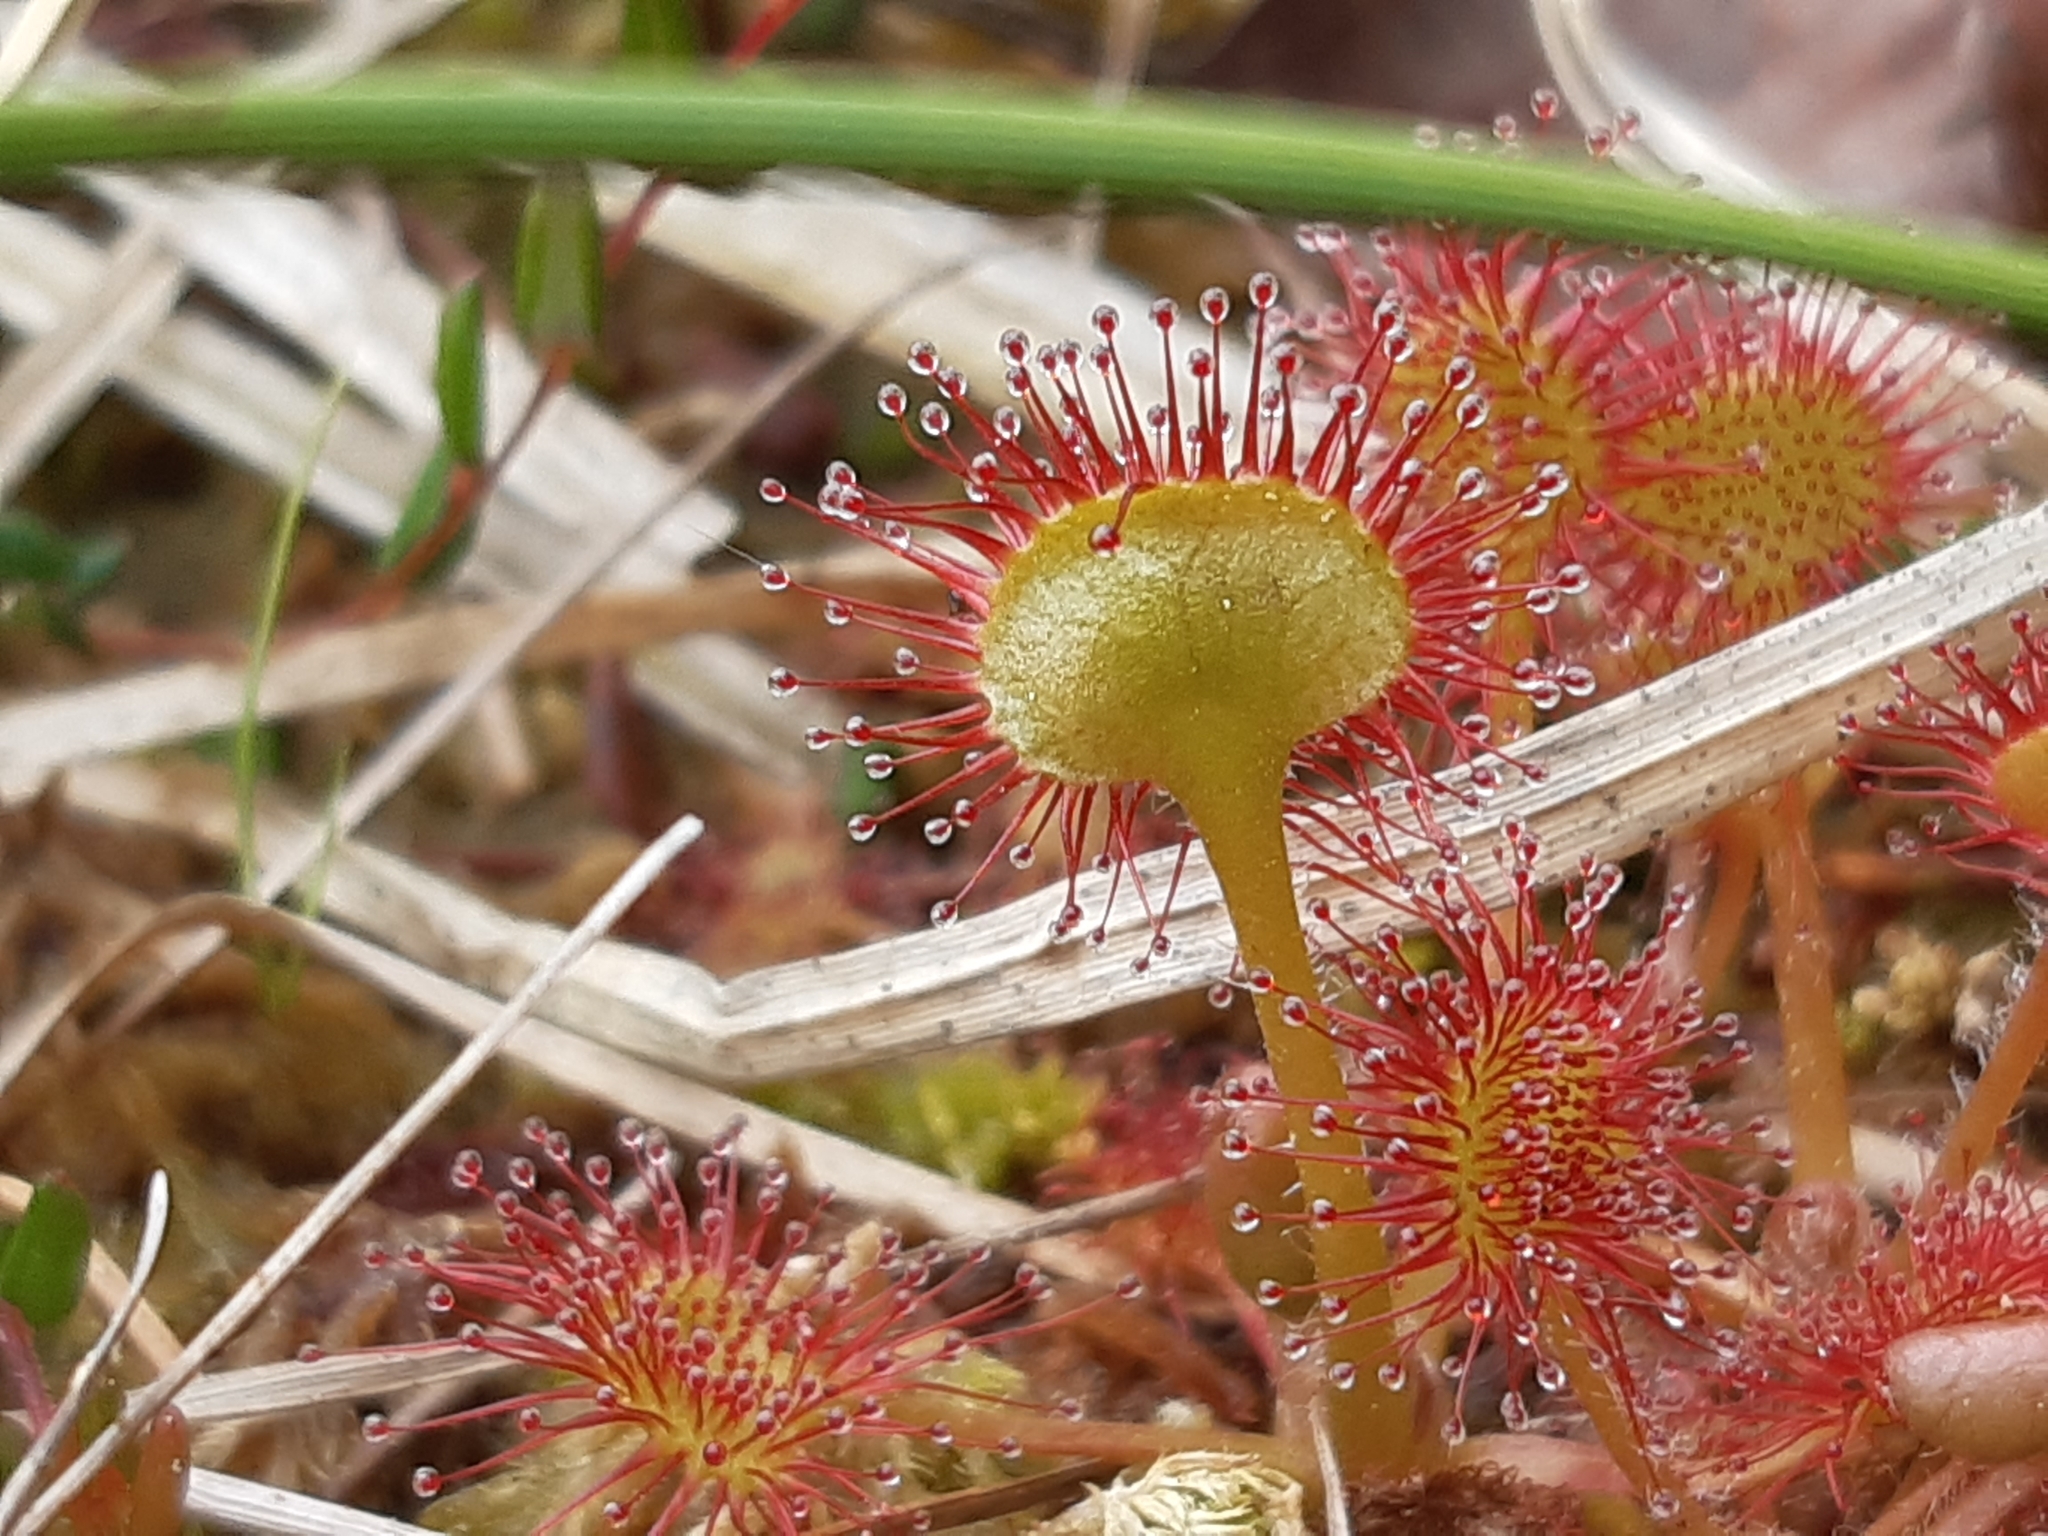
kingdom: Plantae
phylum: Tracheophyta
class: Magnoliopsida
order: Caryophyllales
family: Droseraceae
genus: Drosera
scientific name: Drosera rotundifolia
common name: Round-leaved sundew
